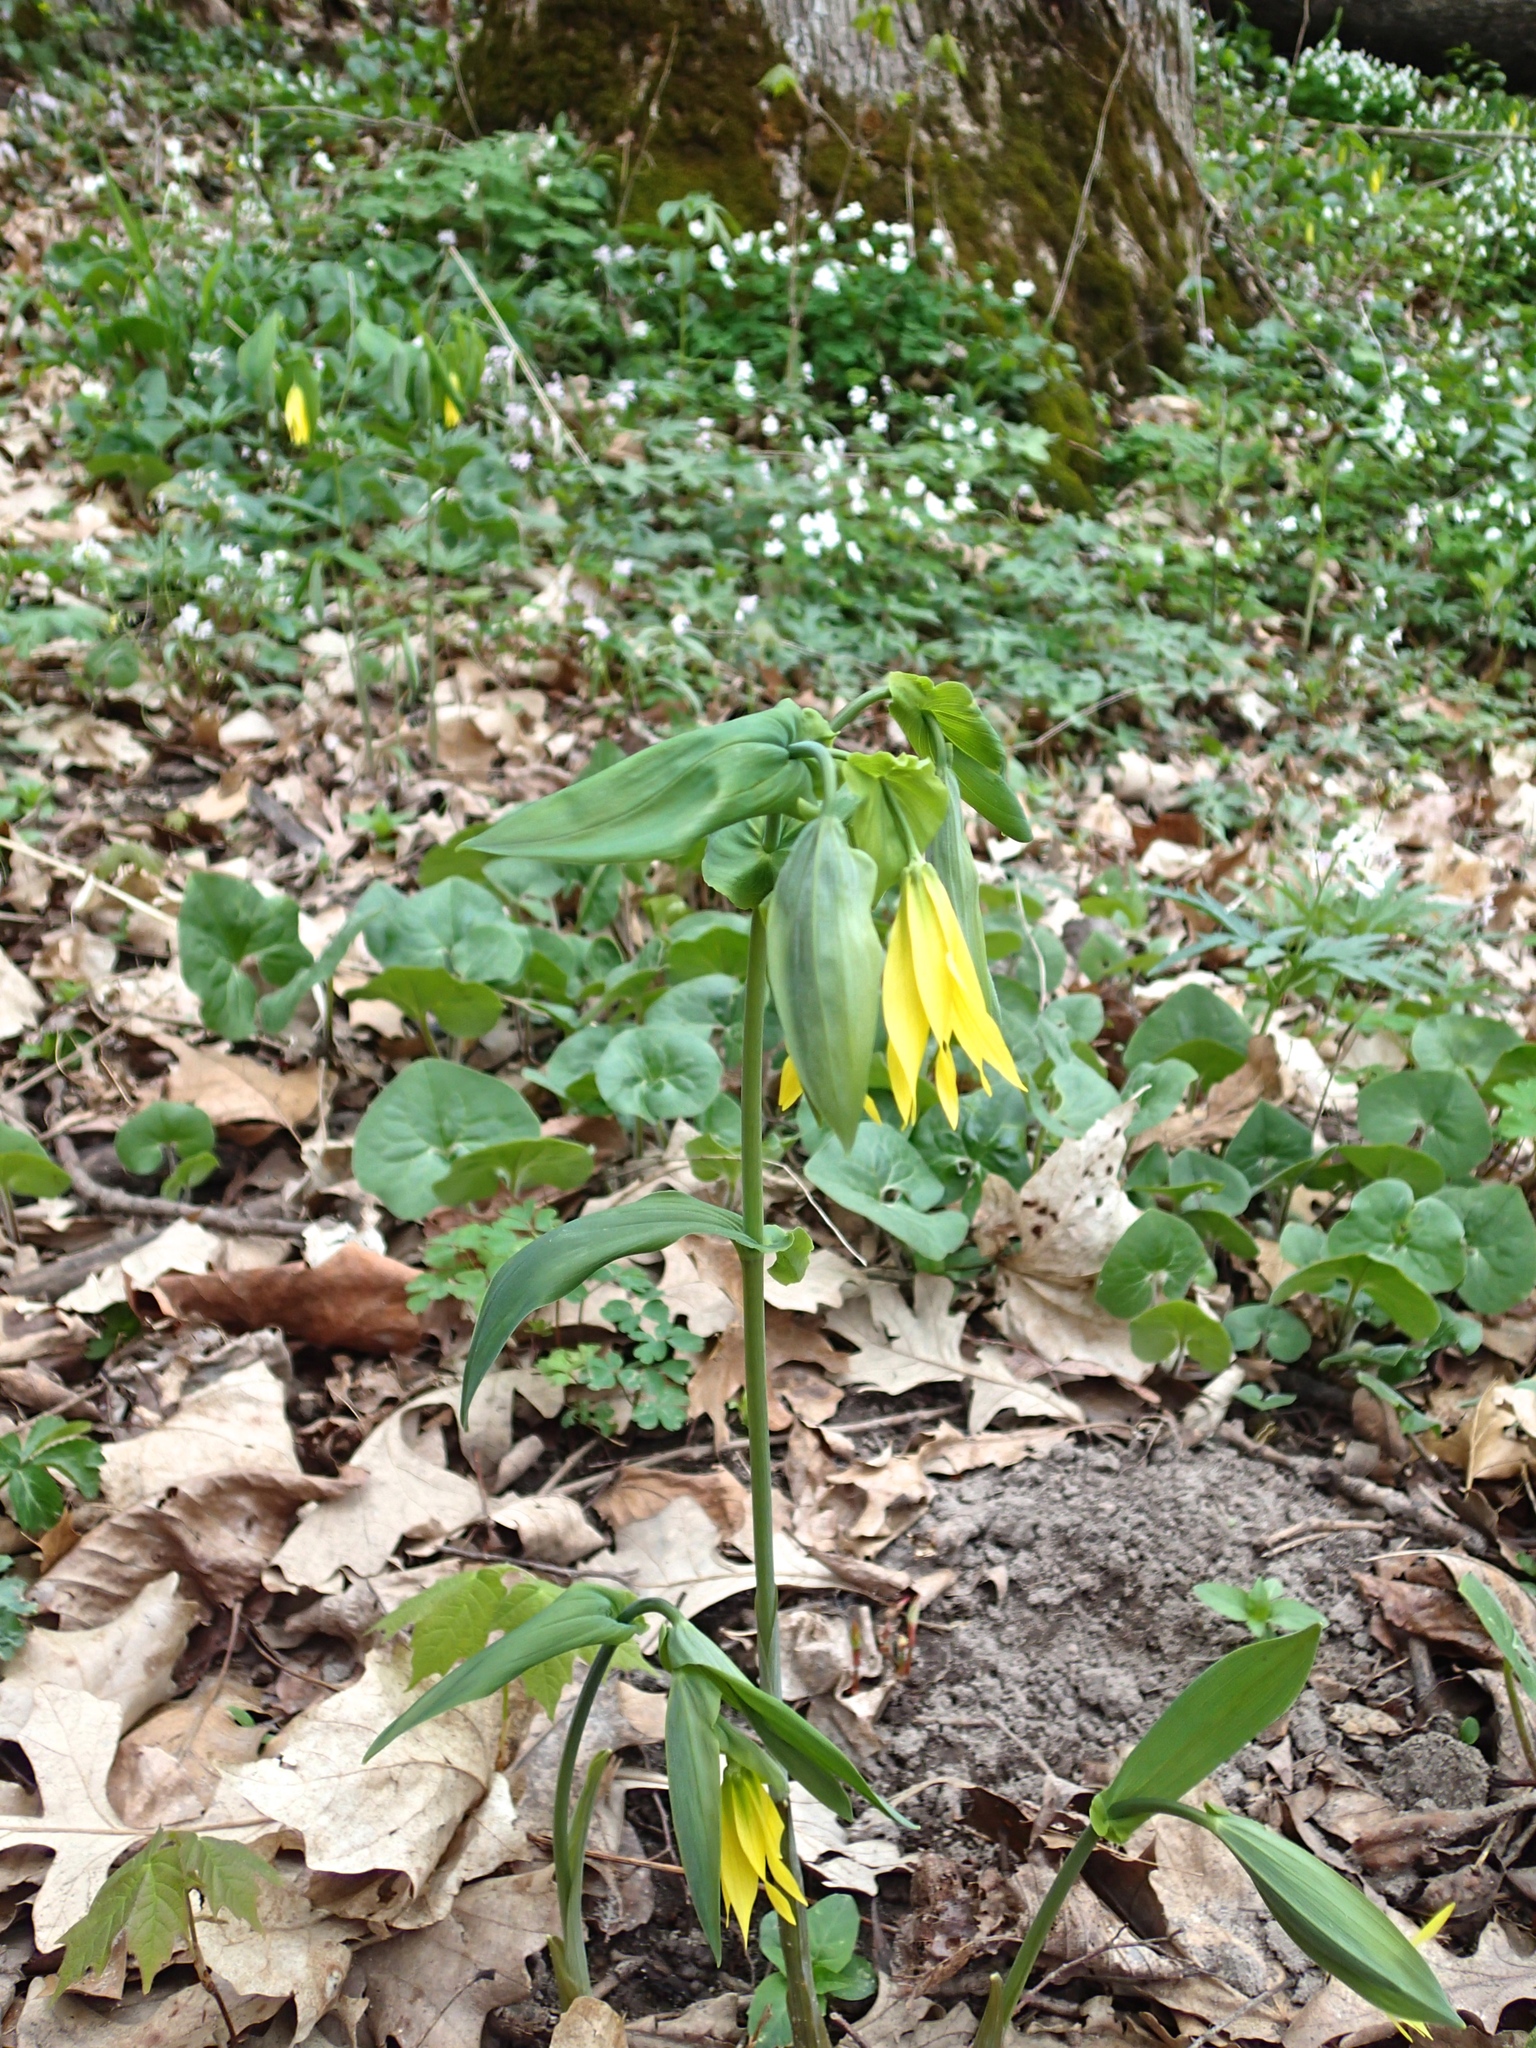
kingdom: Plantae
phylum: Tracheophyta
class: Liliopsida
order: Liliales
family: Colchicaceae
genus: Uvularia
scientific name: Uvularia grandiflora
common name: Bellwort
